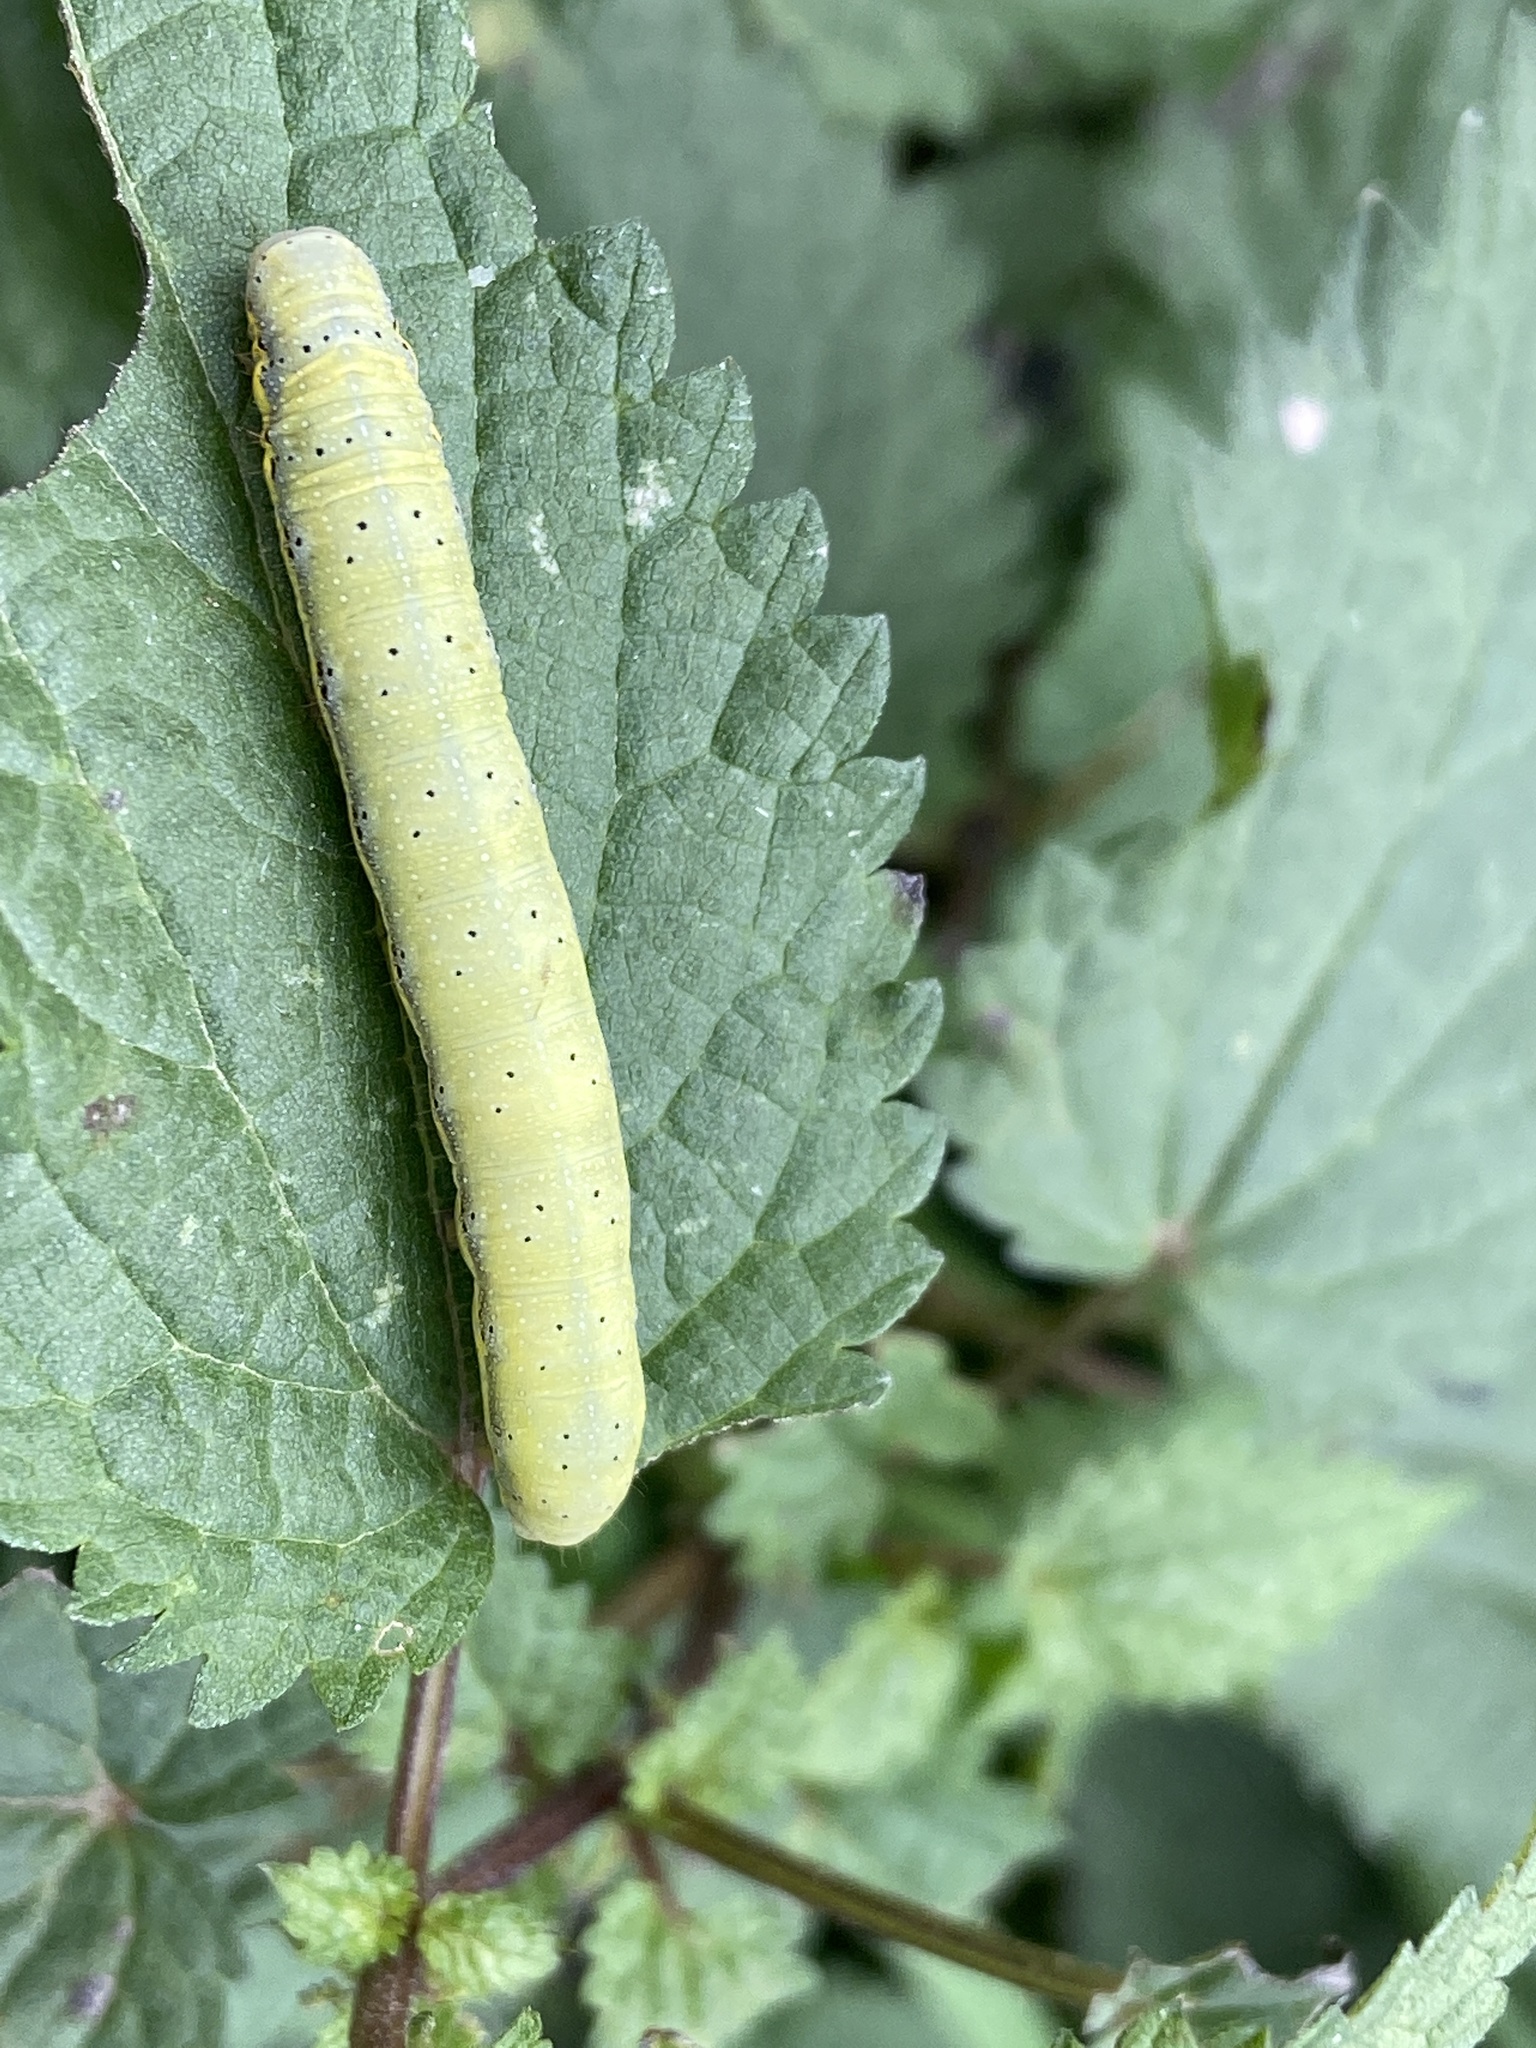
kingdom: Animalia
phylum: Arthropoda
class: Insecta
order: Lepidoptera
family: Noctuidae
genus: Lacanobia
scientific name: Lacanobia oleracea
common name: Bright-line brown-eye
